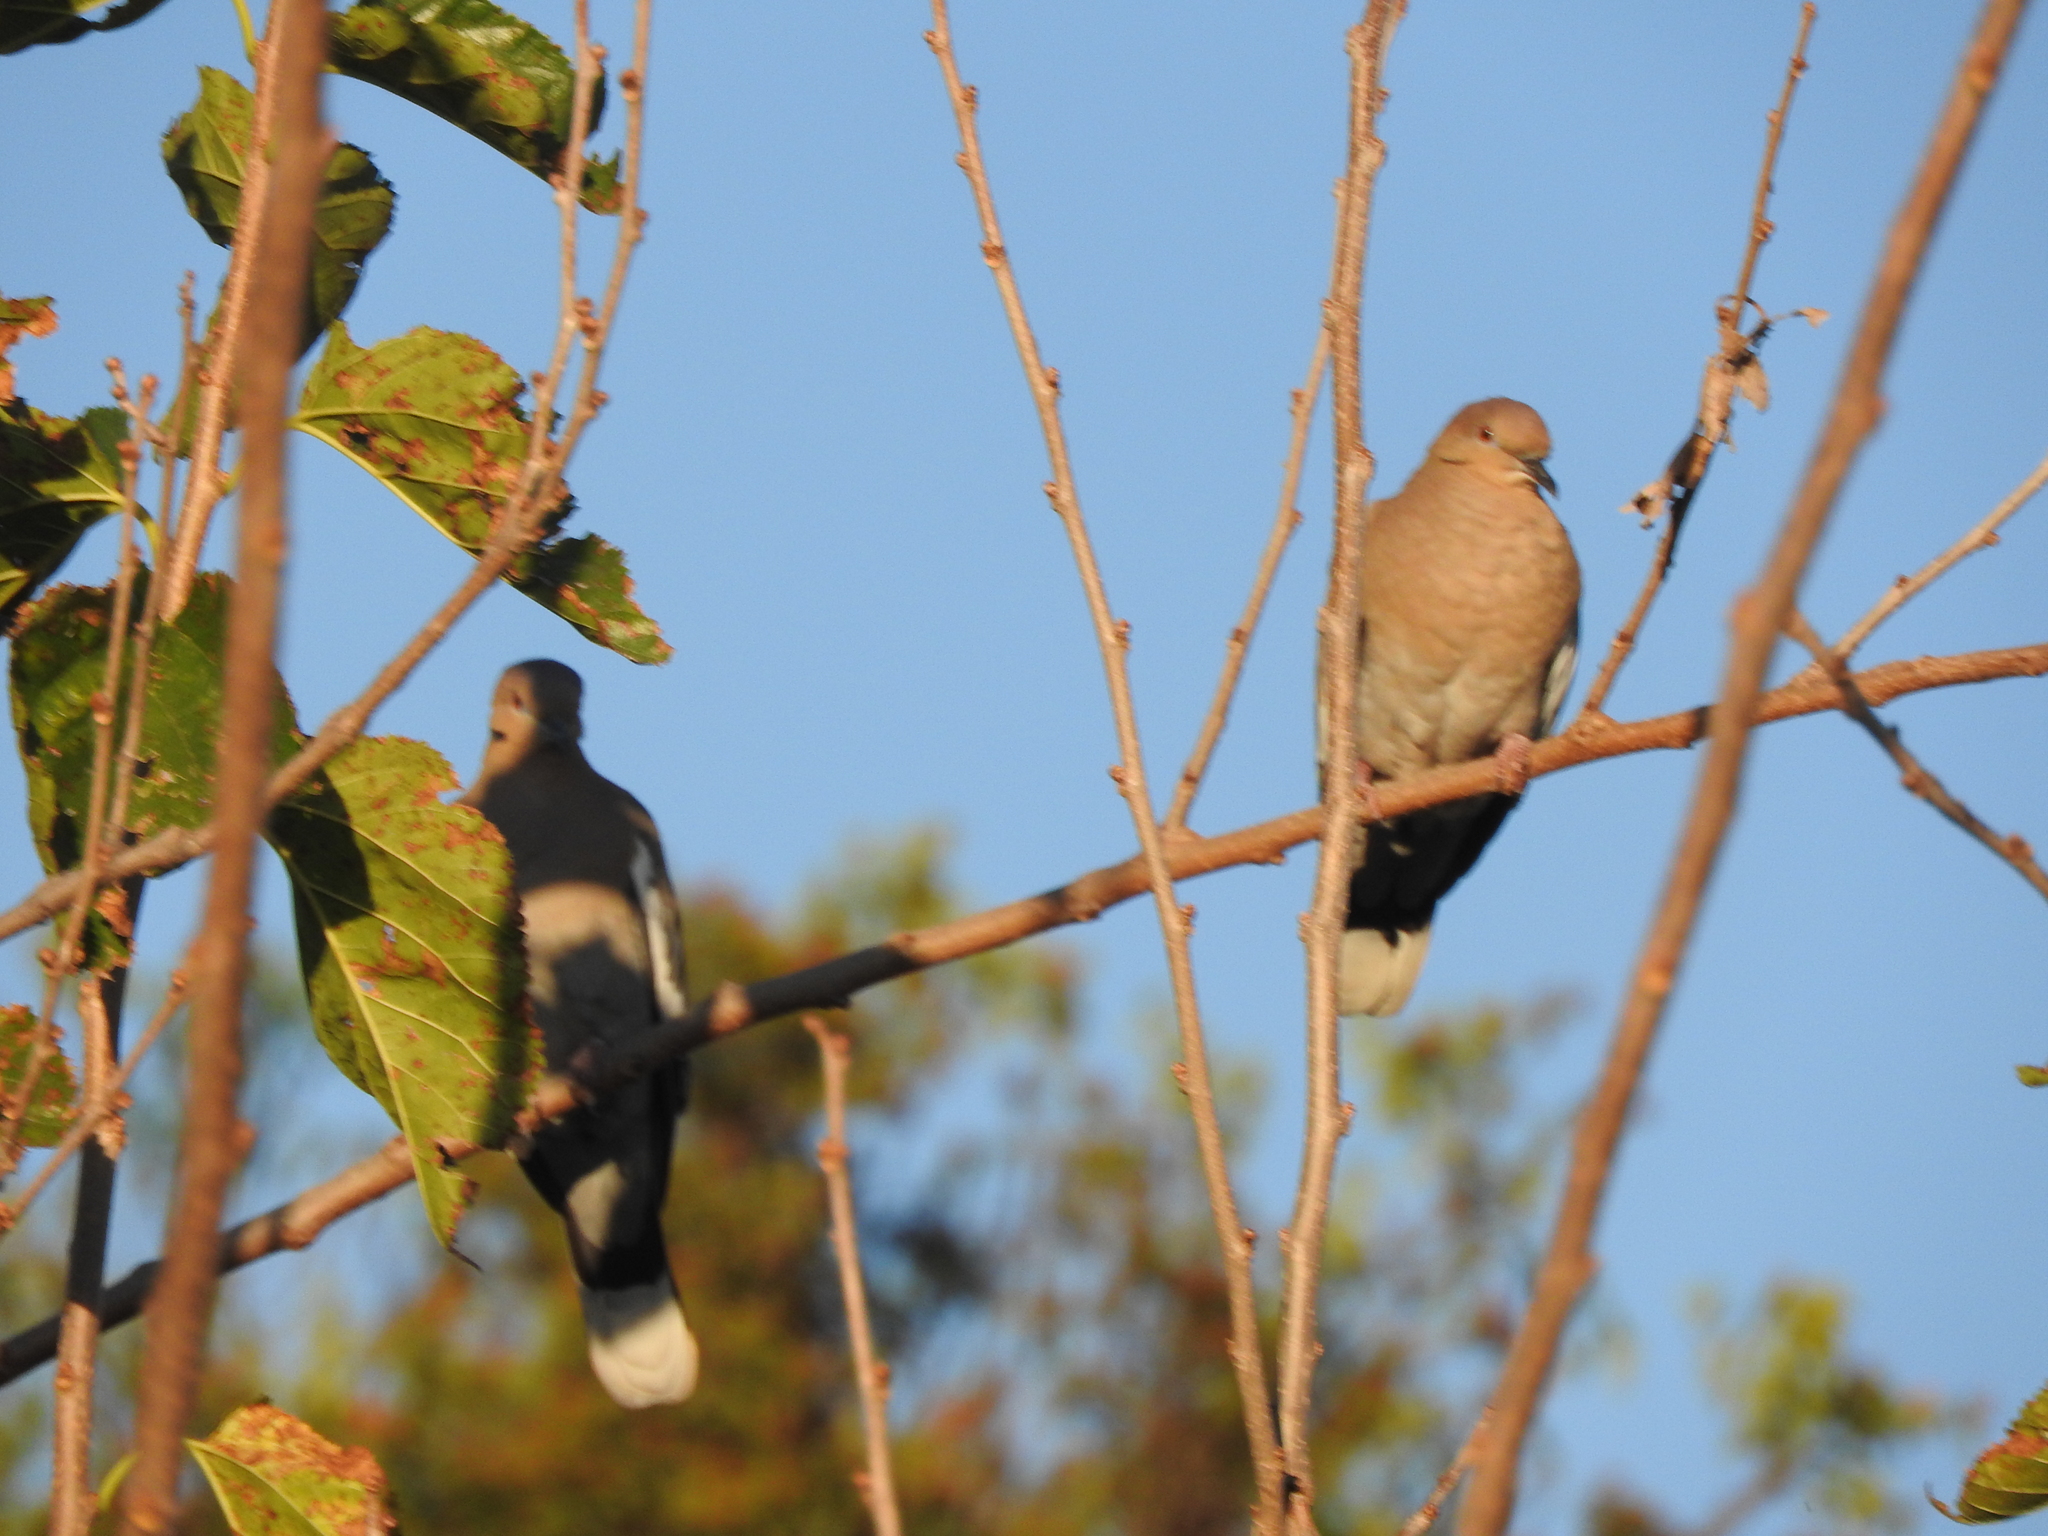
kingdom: Animalia
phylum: Chordata
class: Aves
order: Columbiformes
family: Columbidae
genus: Zenaida
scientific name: Zenaida asiatica
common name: White-winged dove
